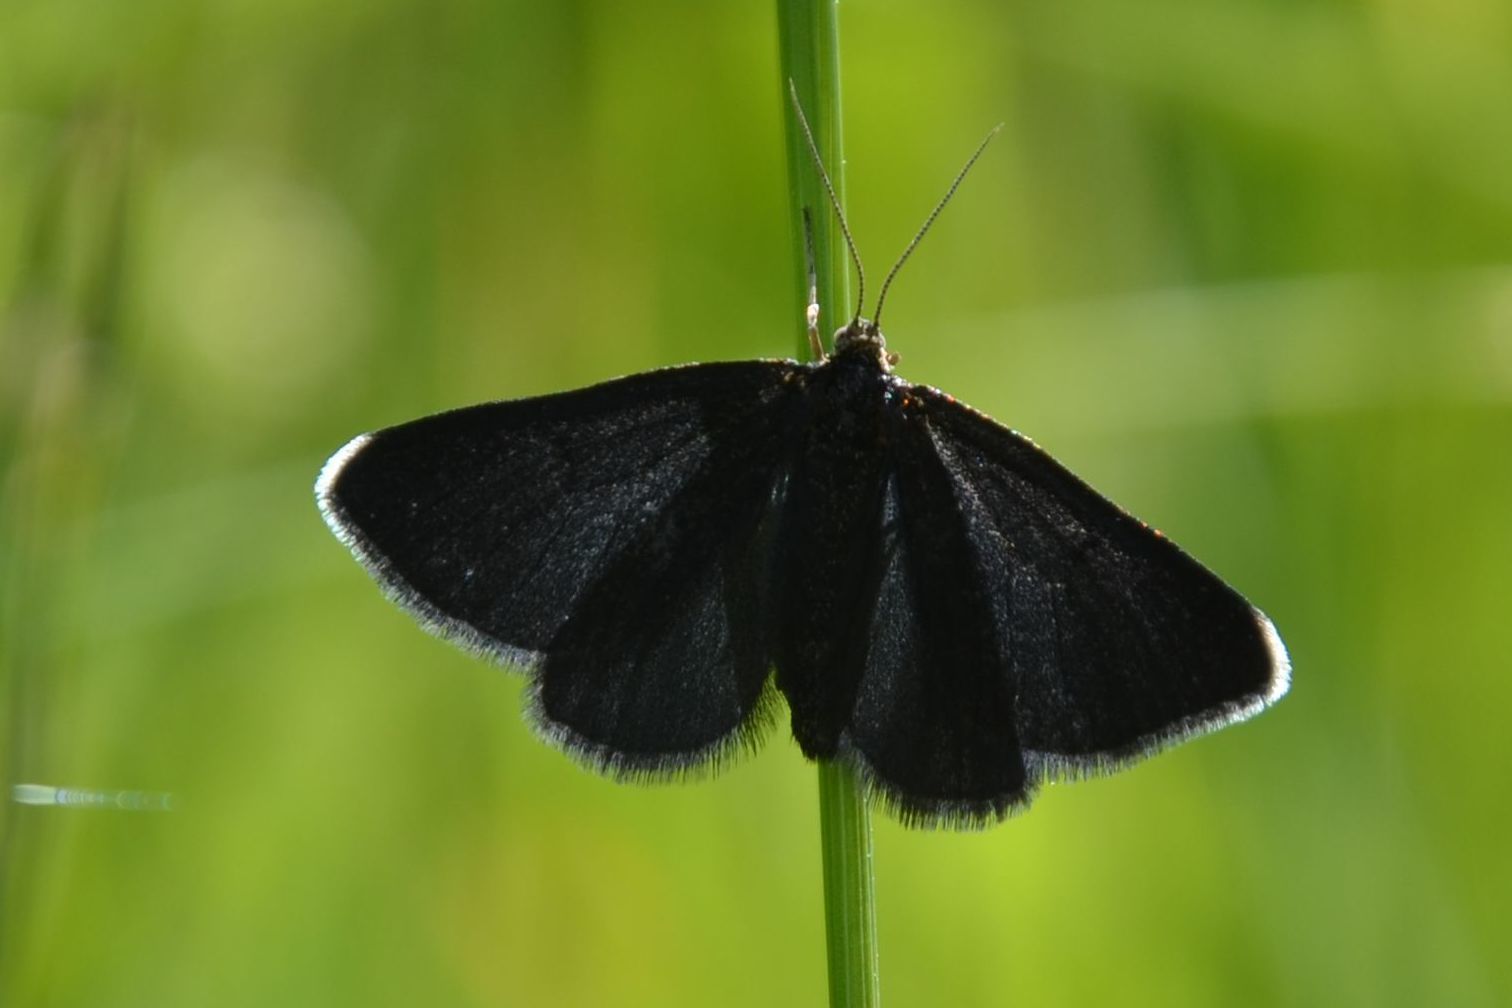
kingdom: Animalia
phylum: Arthropoda
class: Insecta
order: Lepidoptera
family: Geometridae
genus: Odezia
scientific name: Odezia atrata
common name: Chimney sweeper
